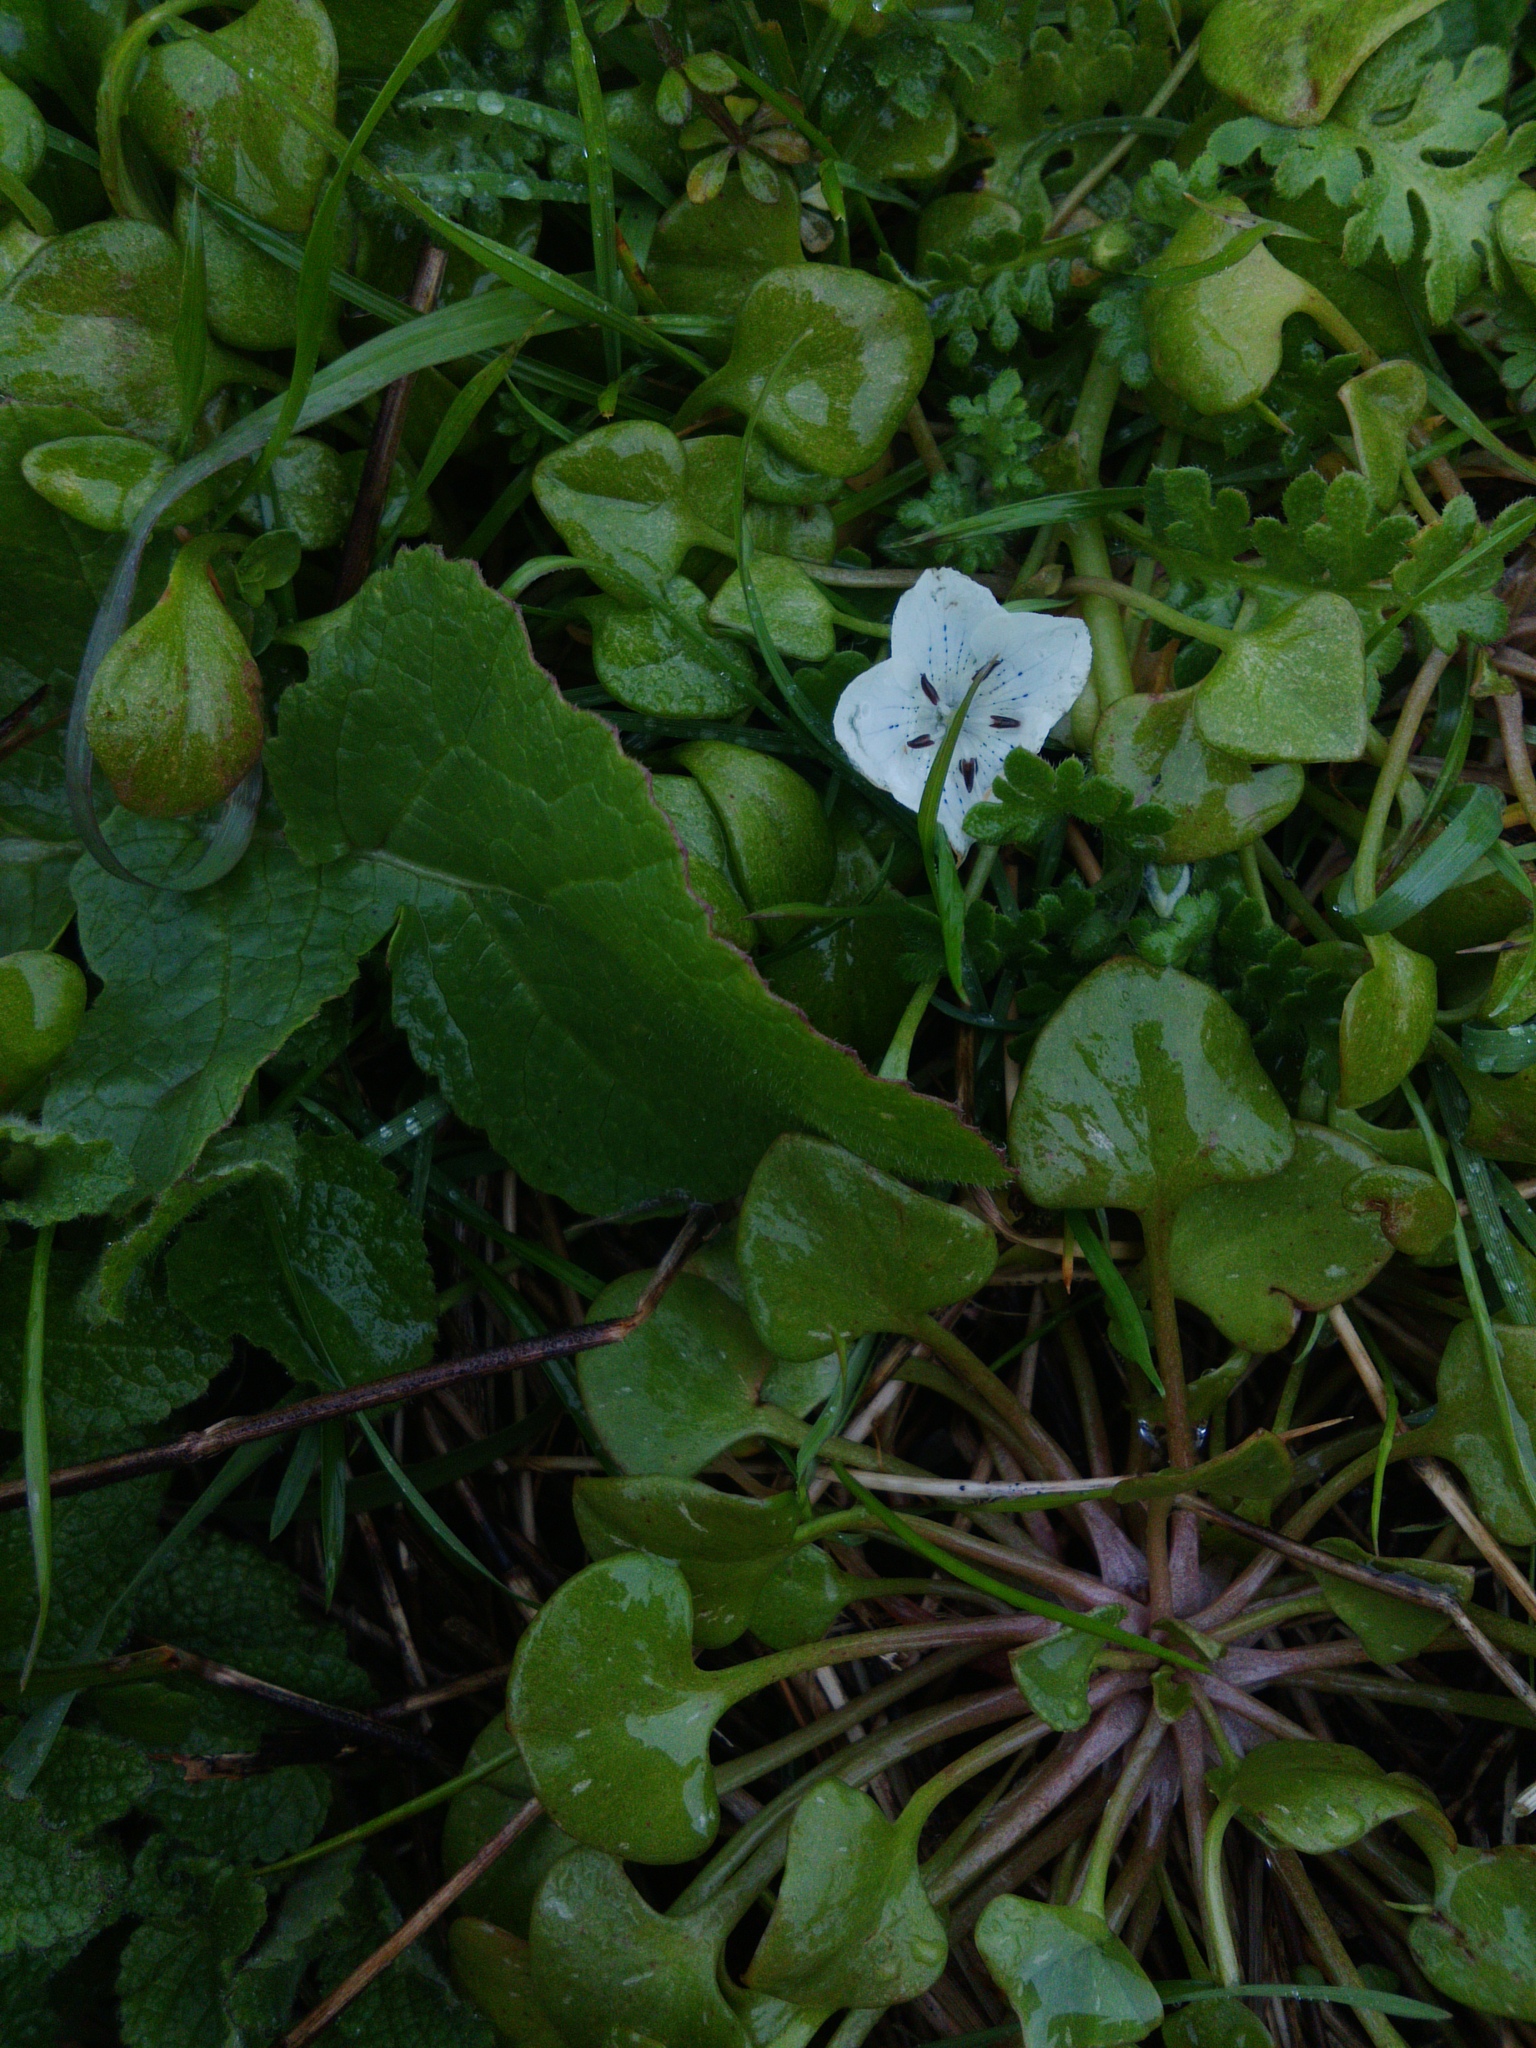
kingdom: Plantae
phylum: Tracheophyta
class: Magnoliopsida
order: Boraginales
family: Hydrophyllaceae
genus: Nemophila
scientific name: Nemophila menziesii
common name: Baby's-blue-eyes
